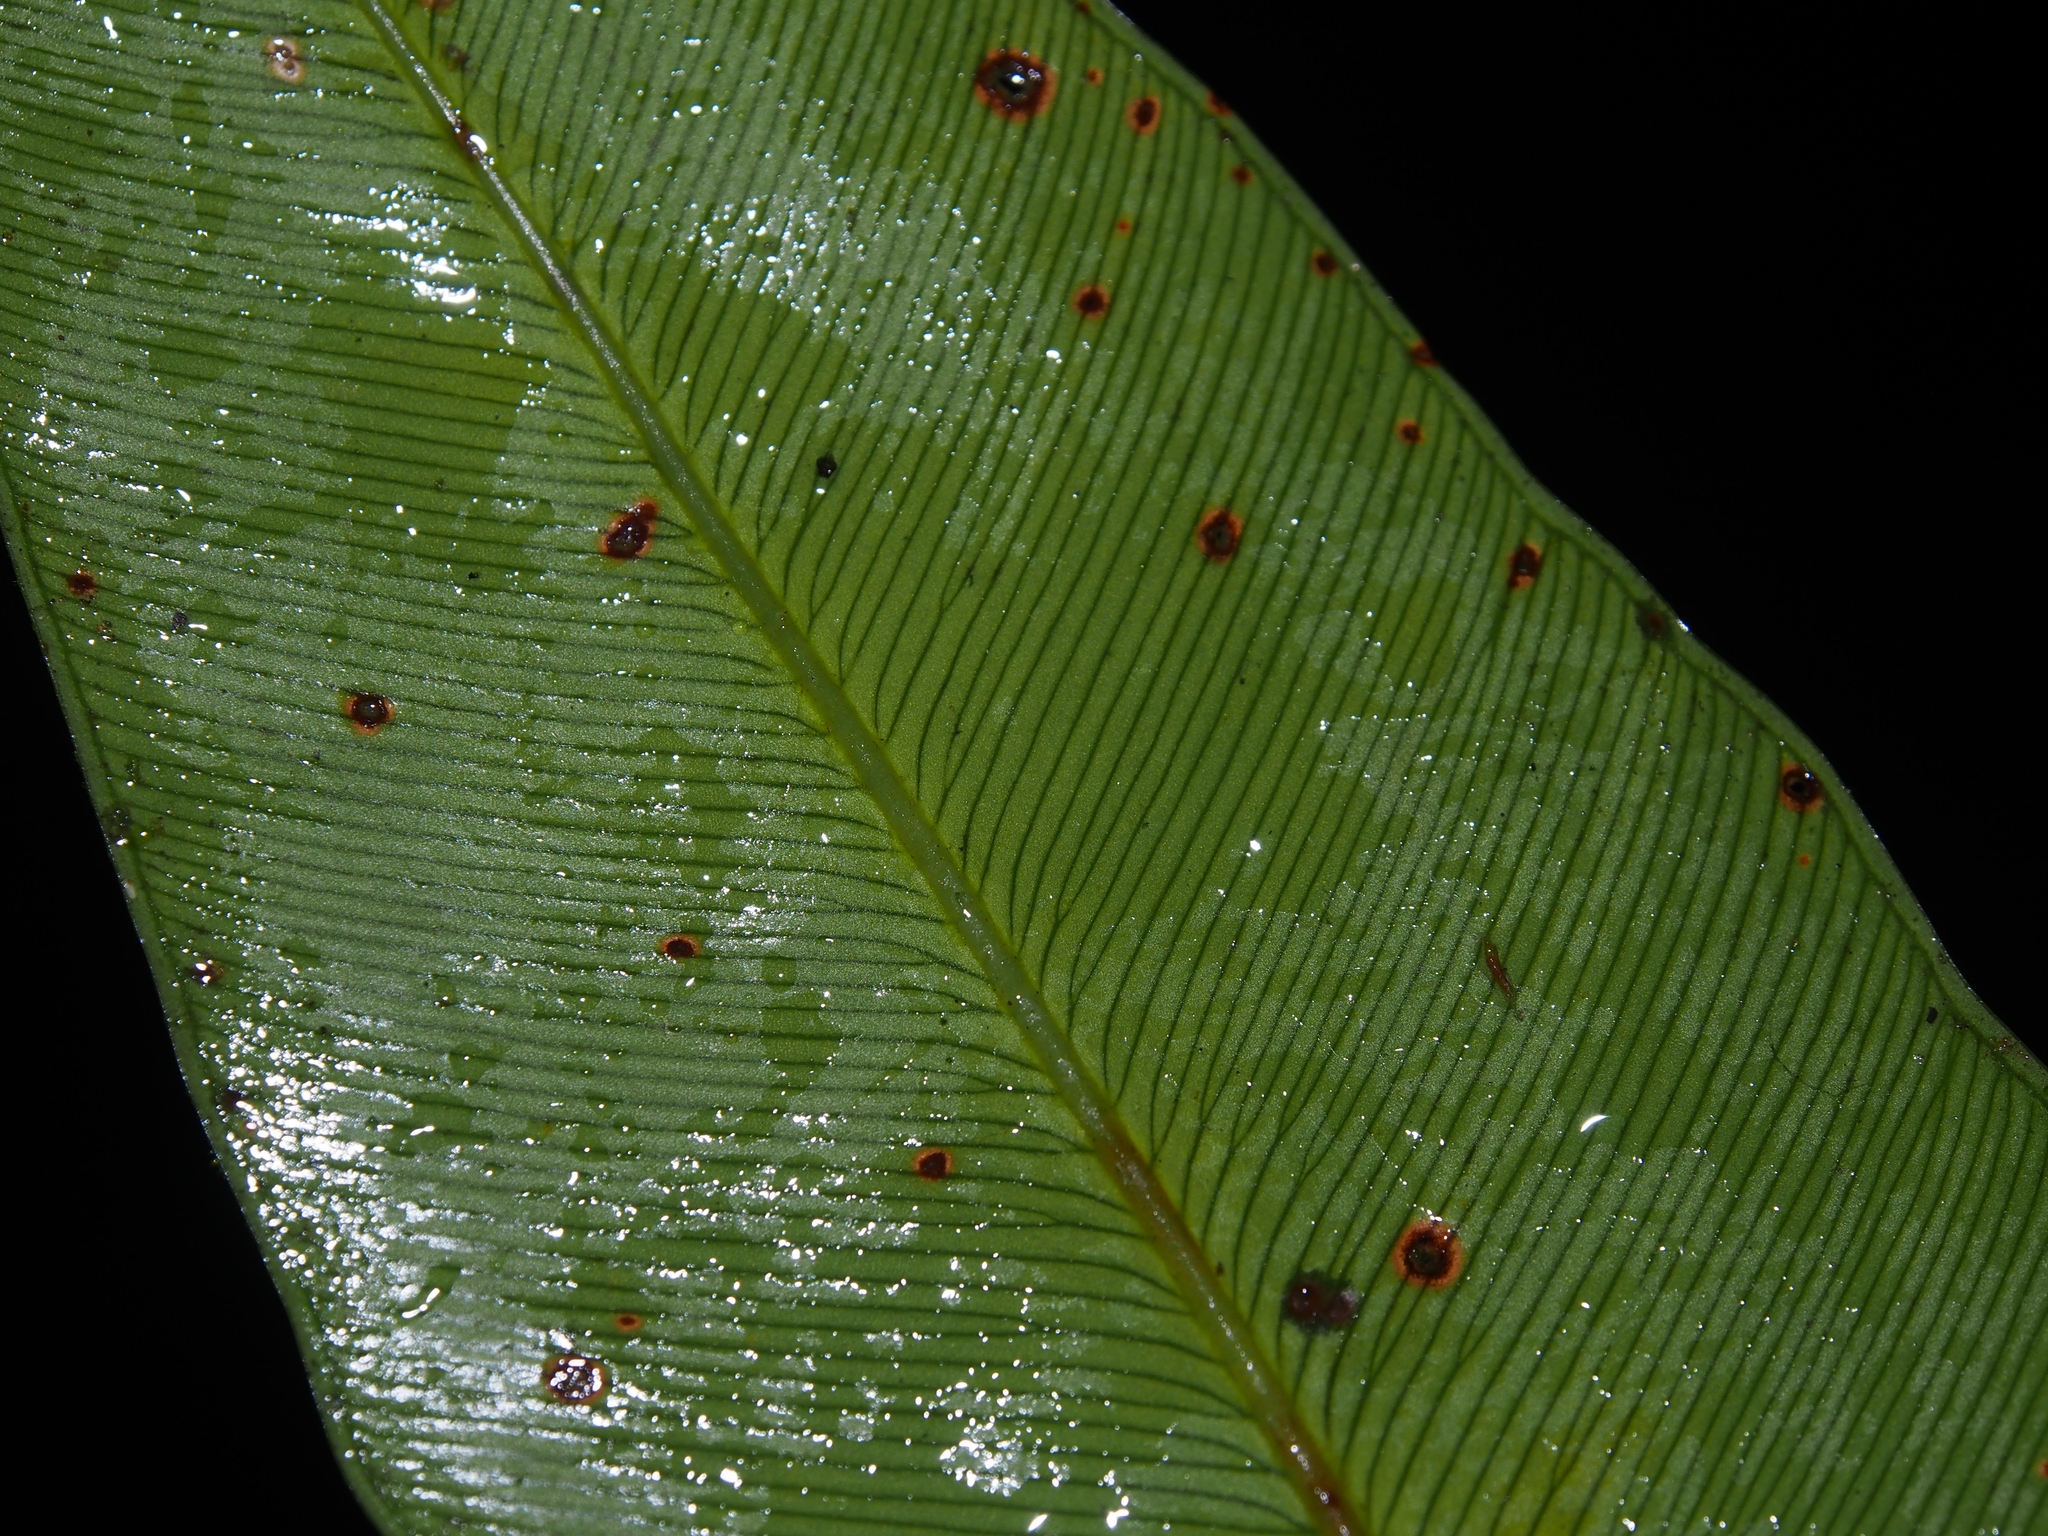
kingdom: Plantae
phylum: Tracheophyta
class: Polypodiopsida
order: Polypodiales
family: Dryopteridaceae
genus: Olfersia
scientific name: Olfersia cervina
